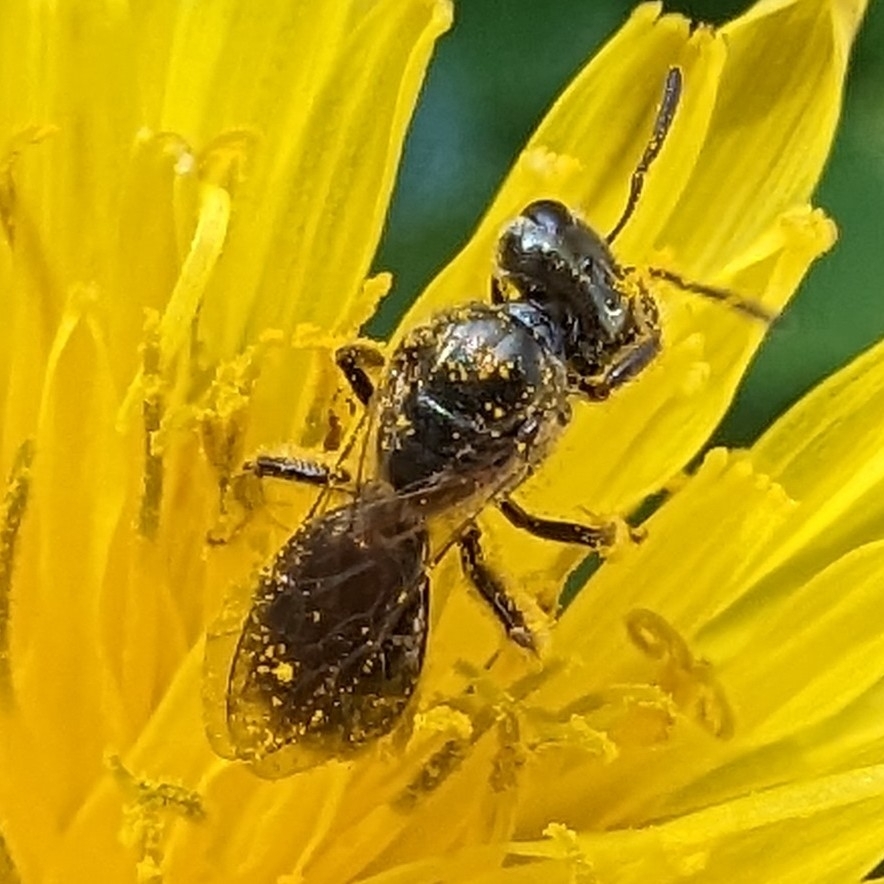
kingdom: Animalia
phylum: Arthropoda
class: Insecta
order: Hymenoptera
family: Halictidae
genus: Dialictus
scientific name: Dialictus
